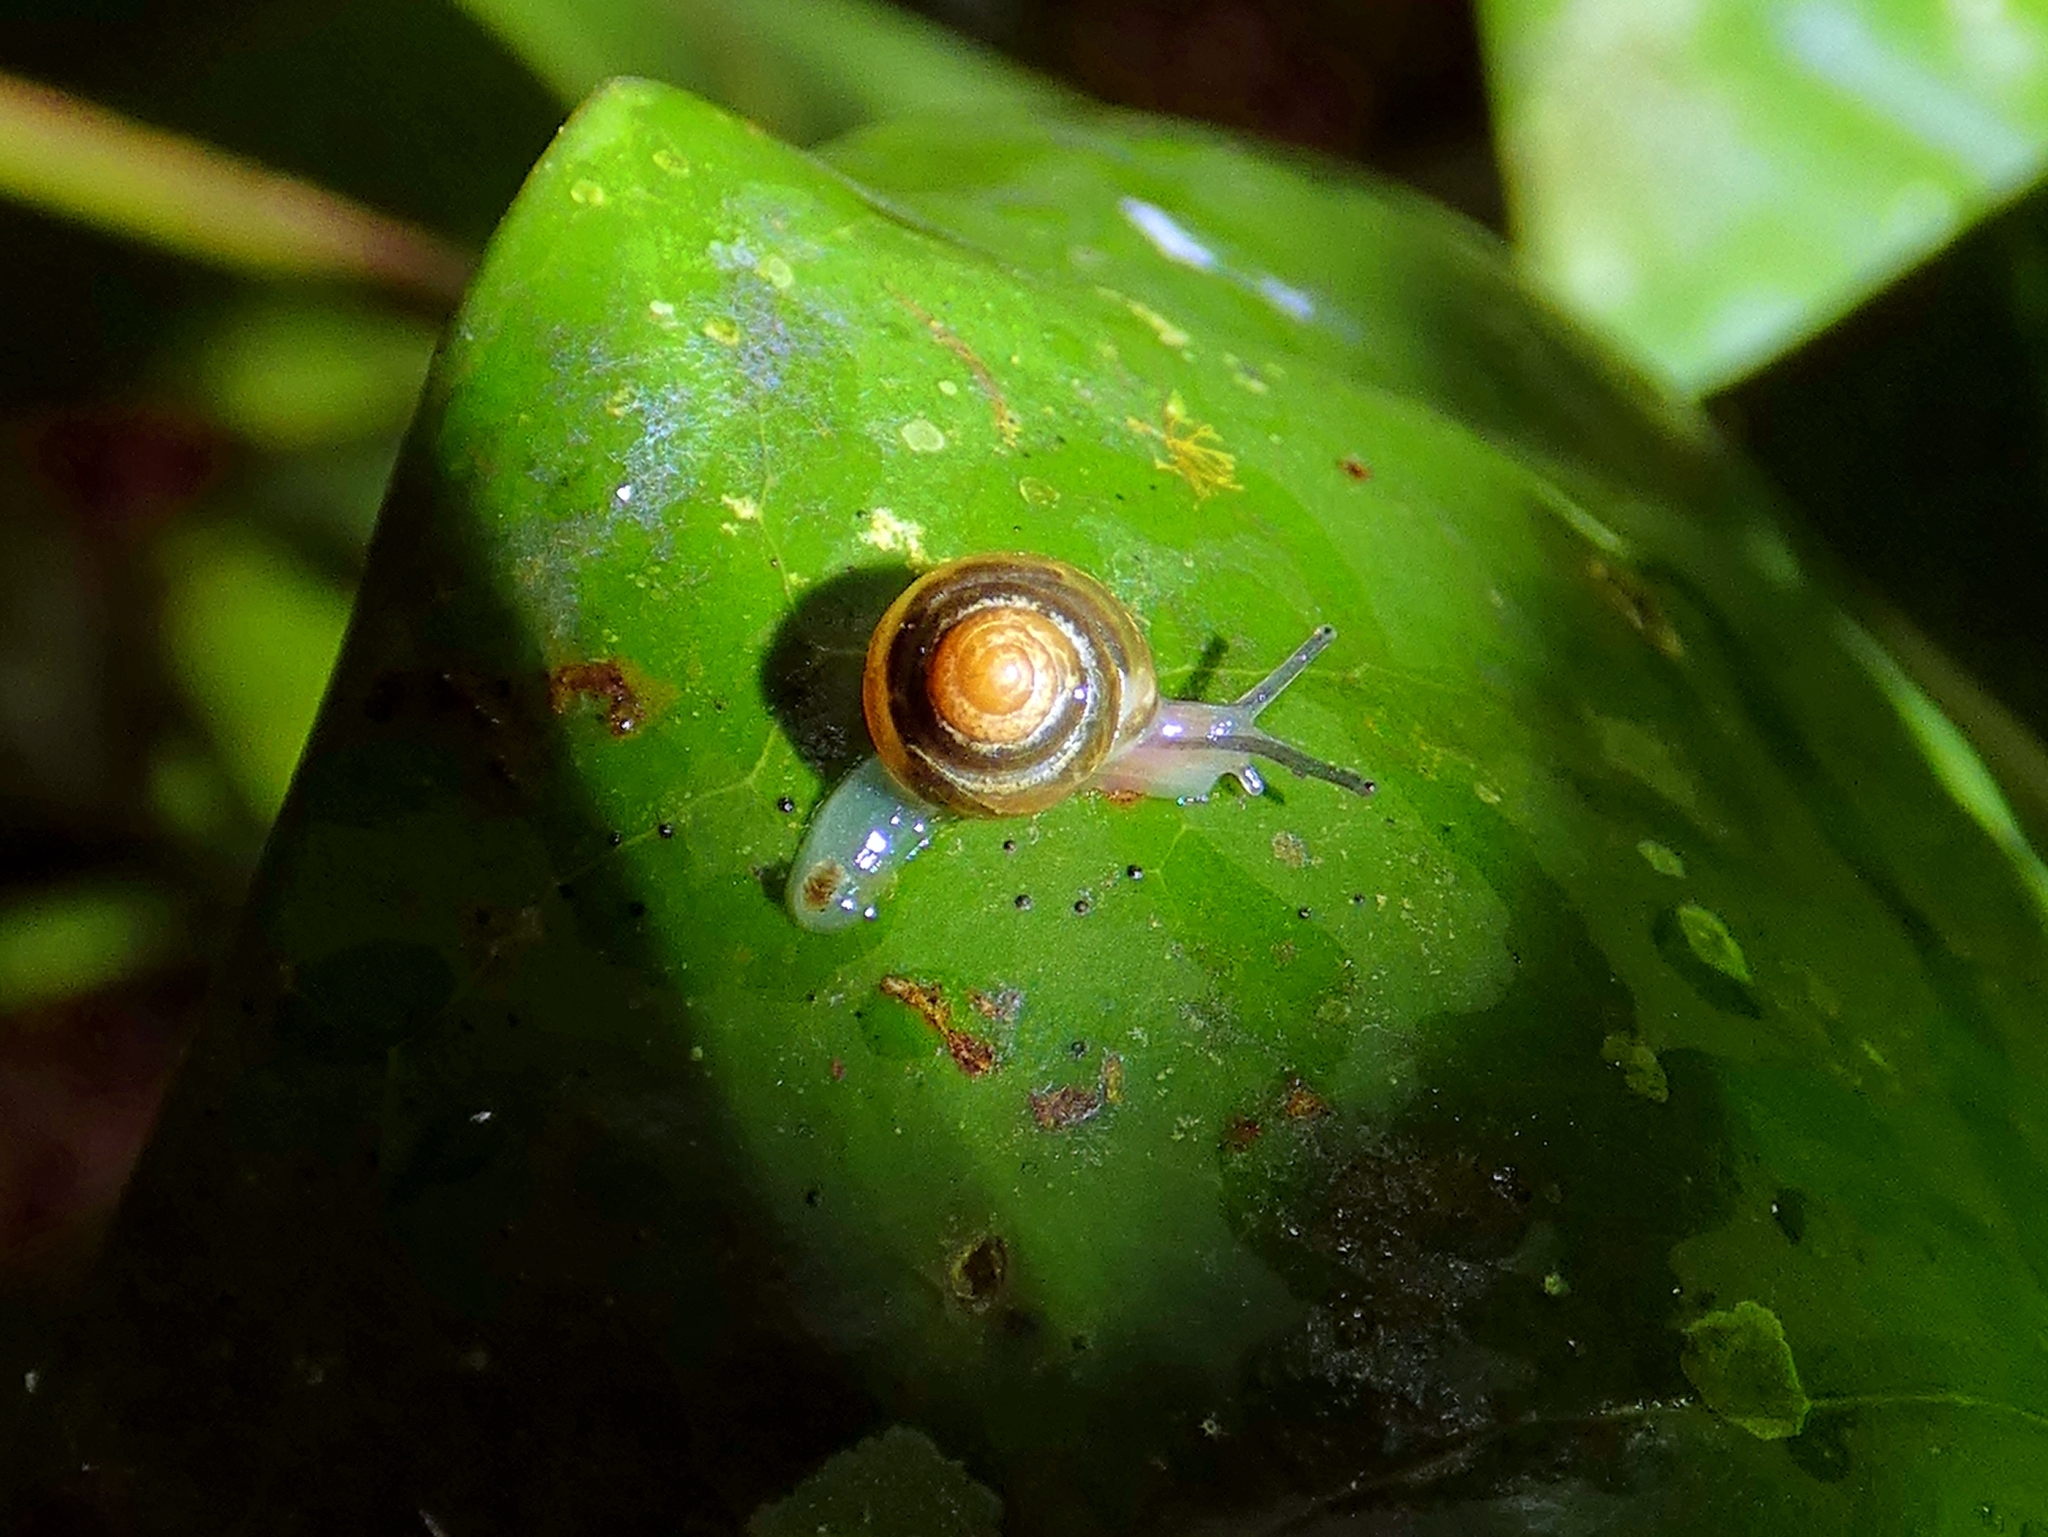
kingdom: Animalia
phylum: Mollusca
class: Gastropoda
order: Stylommatophora
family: Euconulidae
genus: Coneuplecta
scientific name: Coneuplecta calculosa
